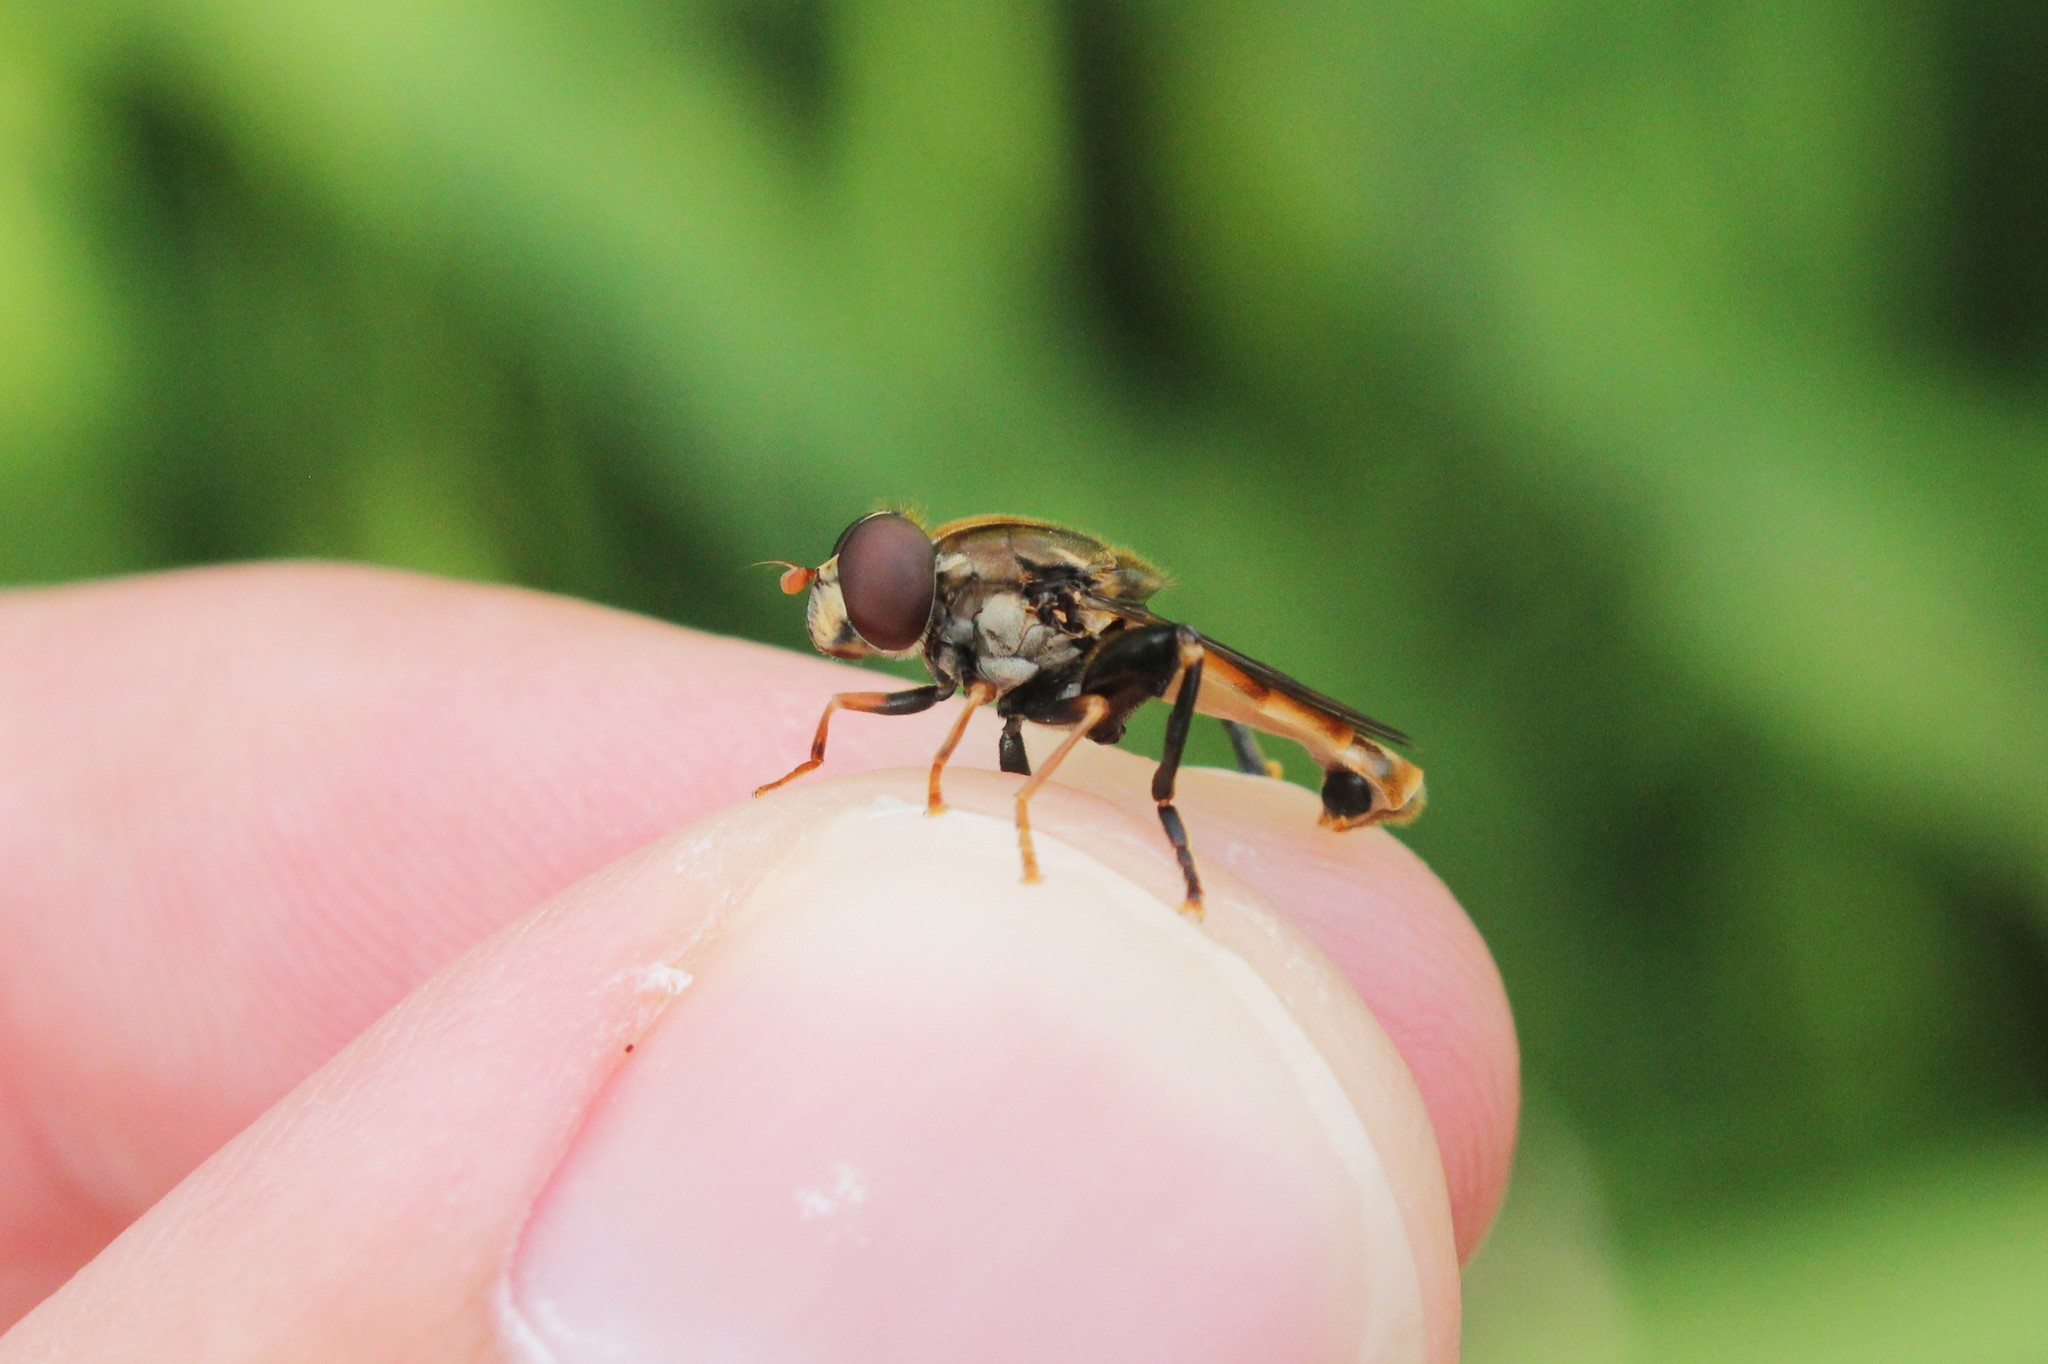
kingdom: Animalia
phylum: Arthropoda
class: Insecta
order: Diptera
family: Syrphidae
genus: Tropidia
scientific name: Tropidia quadrata
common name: Common thick-legged fly
